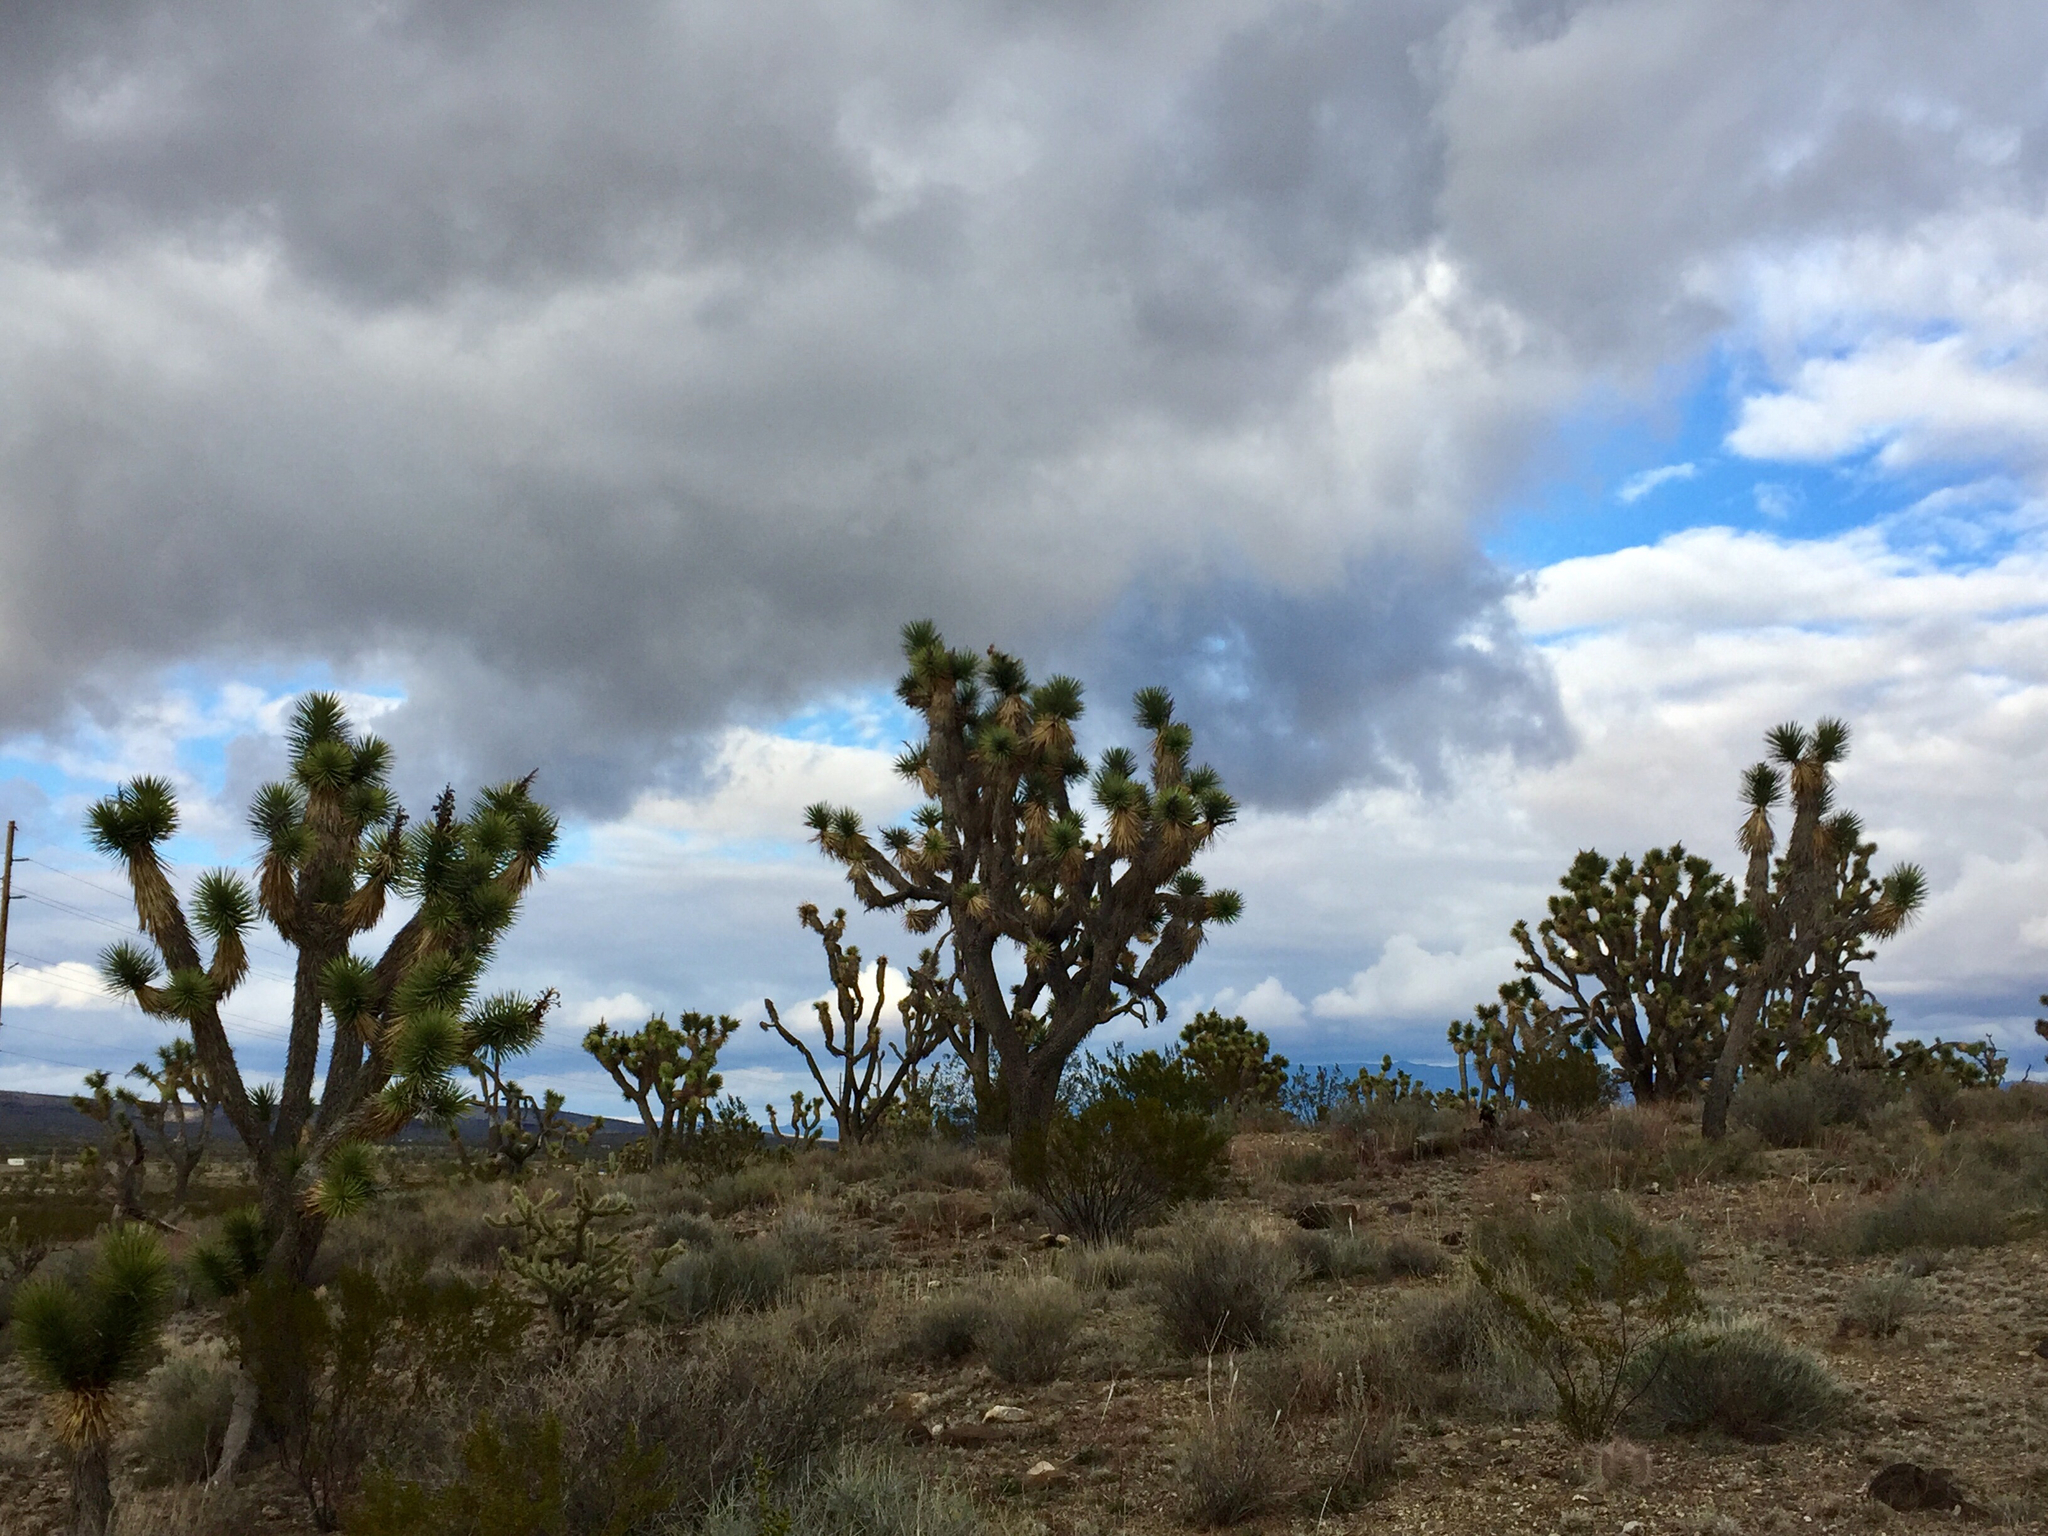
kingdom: Plantae
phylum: Tracheophyta
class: Liliopsida
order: Asparagales
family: Asparagaceae
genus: Yucca
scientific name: Yucca brevifolia
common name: Joshua tree
